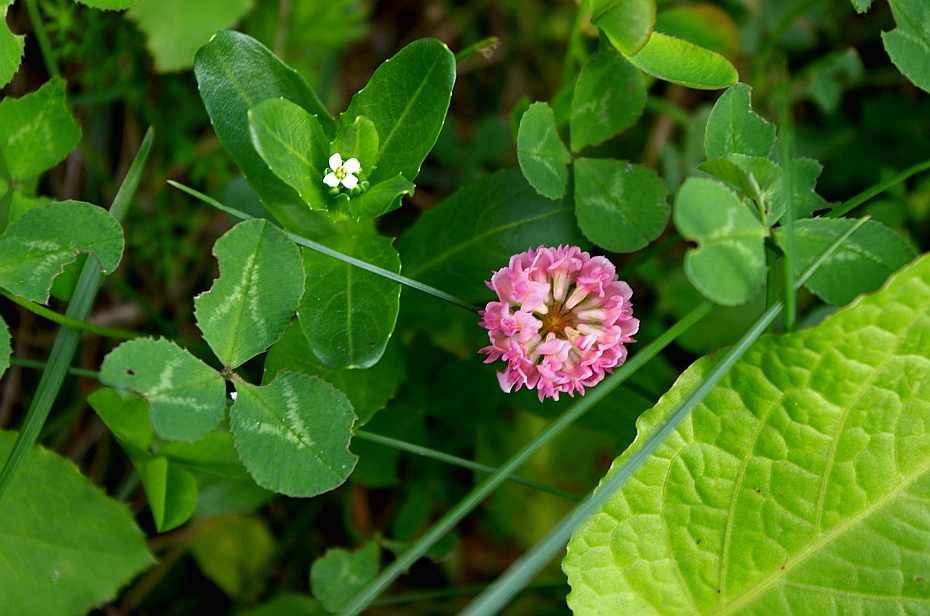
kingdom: Plantae
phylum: Tracheophyta
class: Magnoliopsida
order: Fabales
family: Fabaceae
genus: Trifolium
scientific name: Trifolium hybridum
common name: Alsike clover
